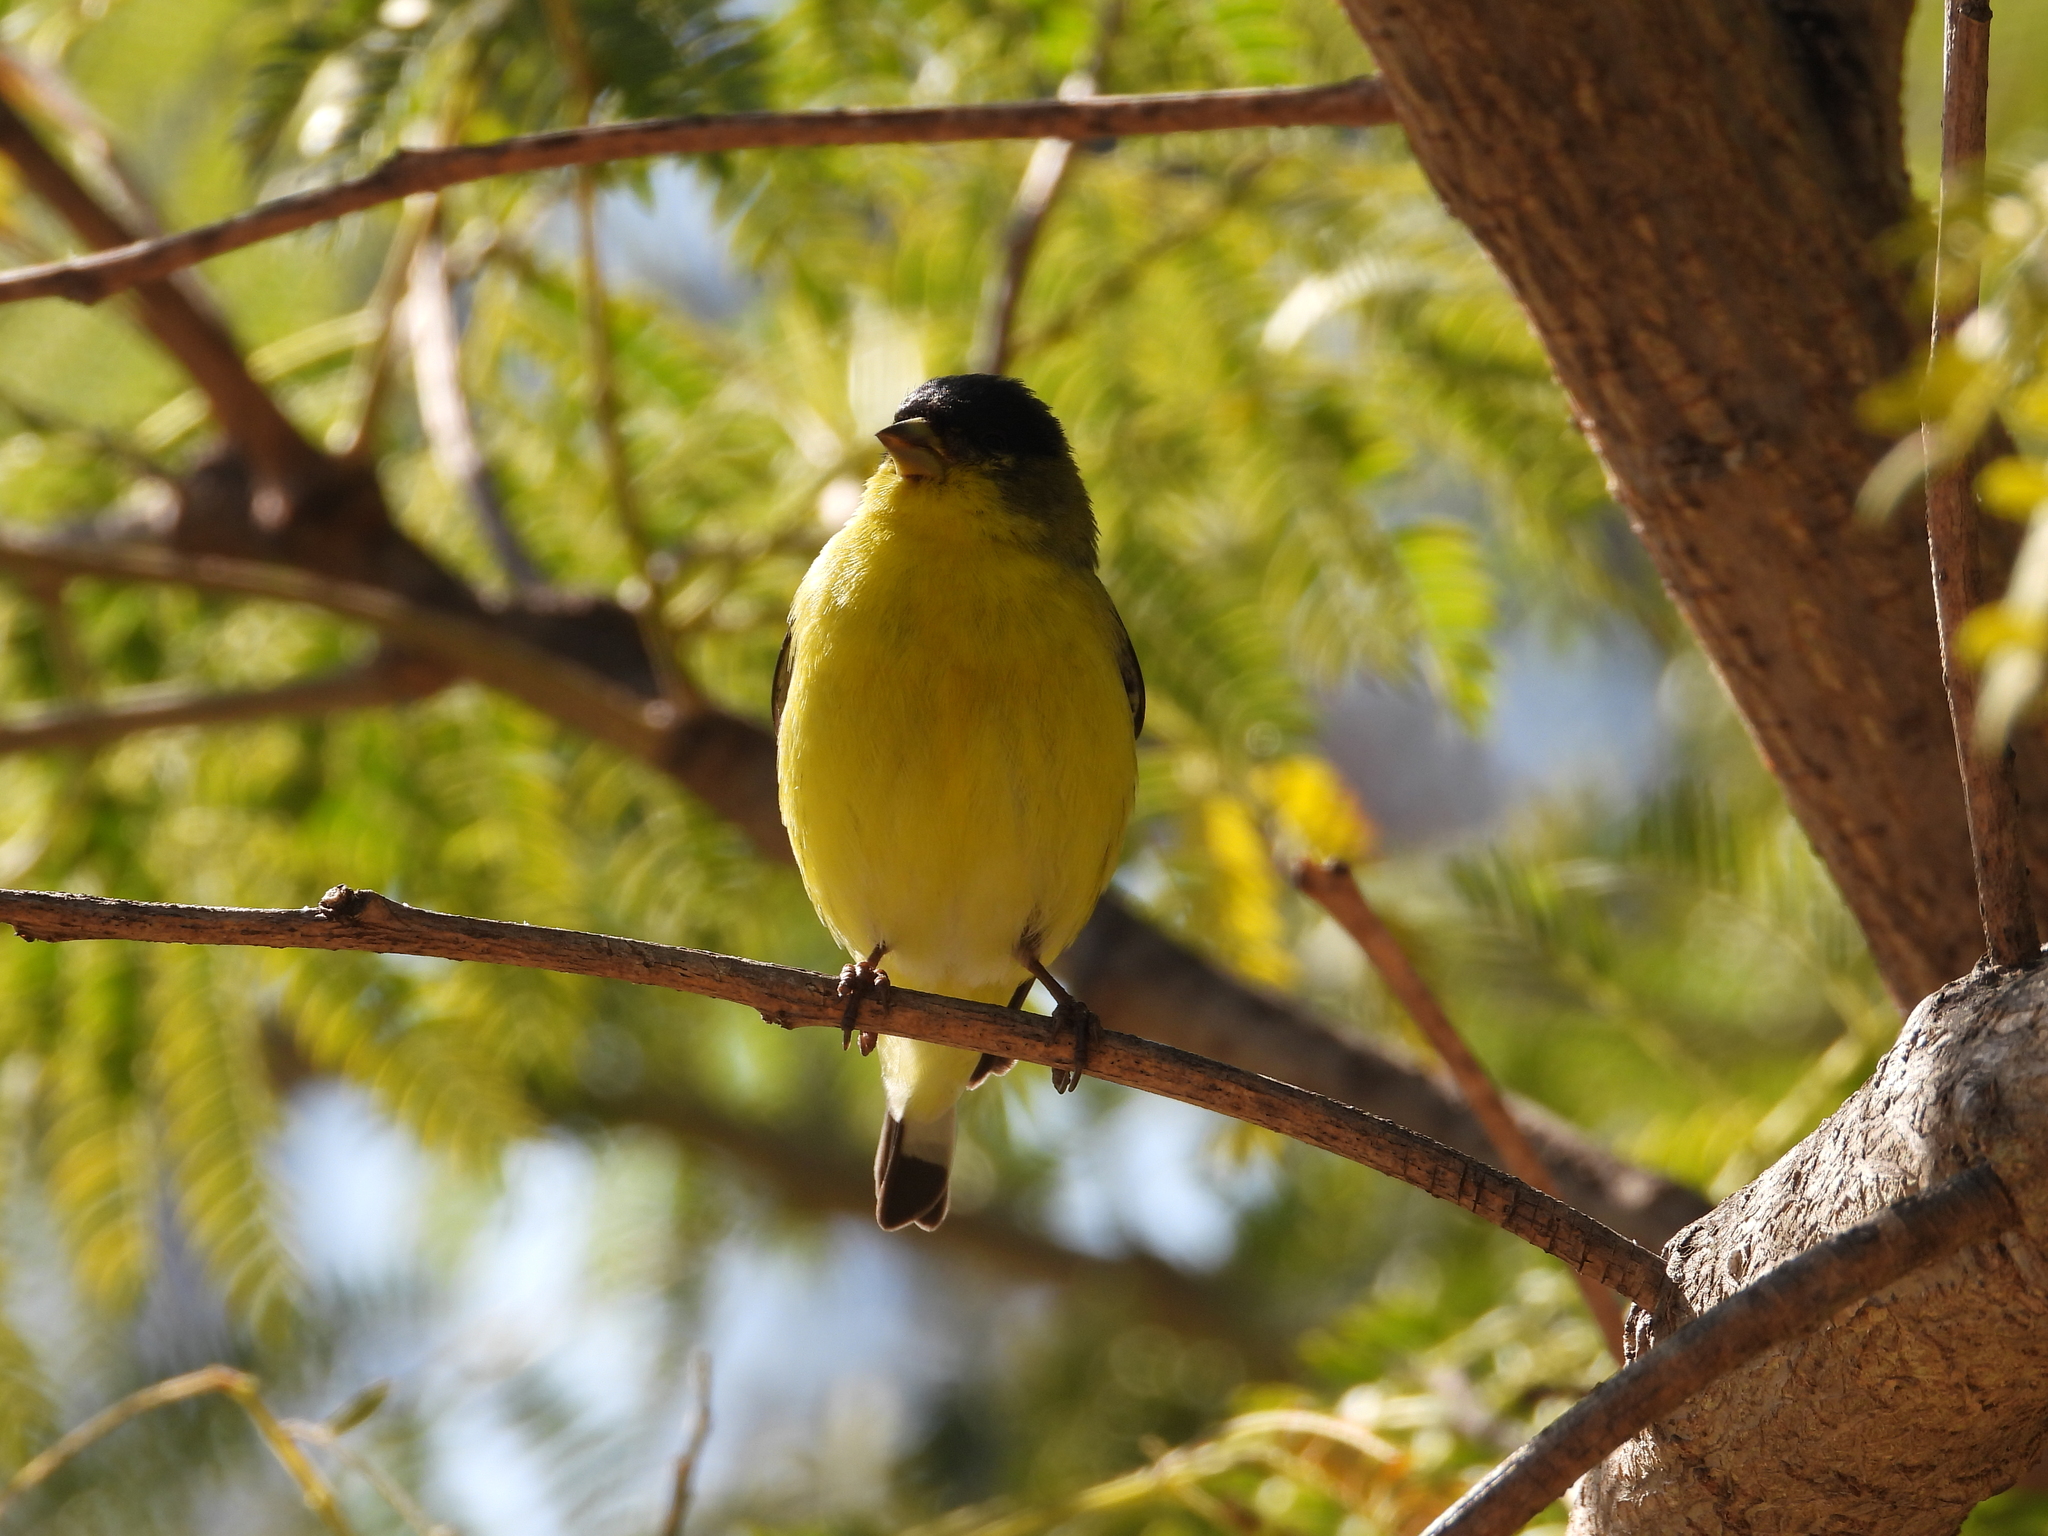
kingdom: Animalia
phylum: Chordata
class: Aves
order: Passeriformes
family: Fringillidae
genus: Spinus
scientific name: Spinus psaltria
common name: Lesser goldfinch
